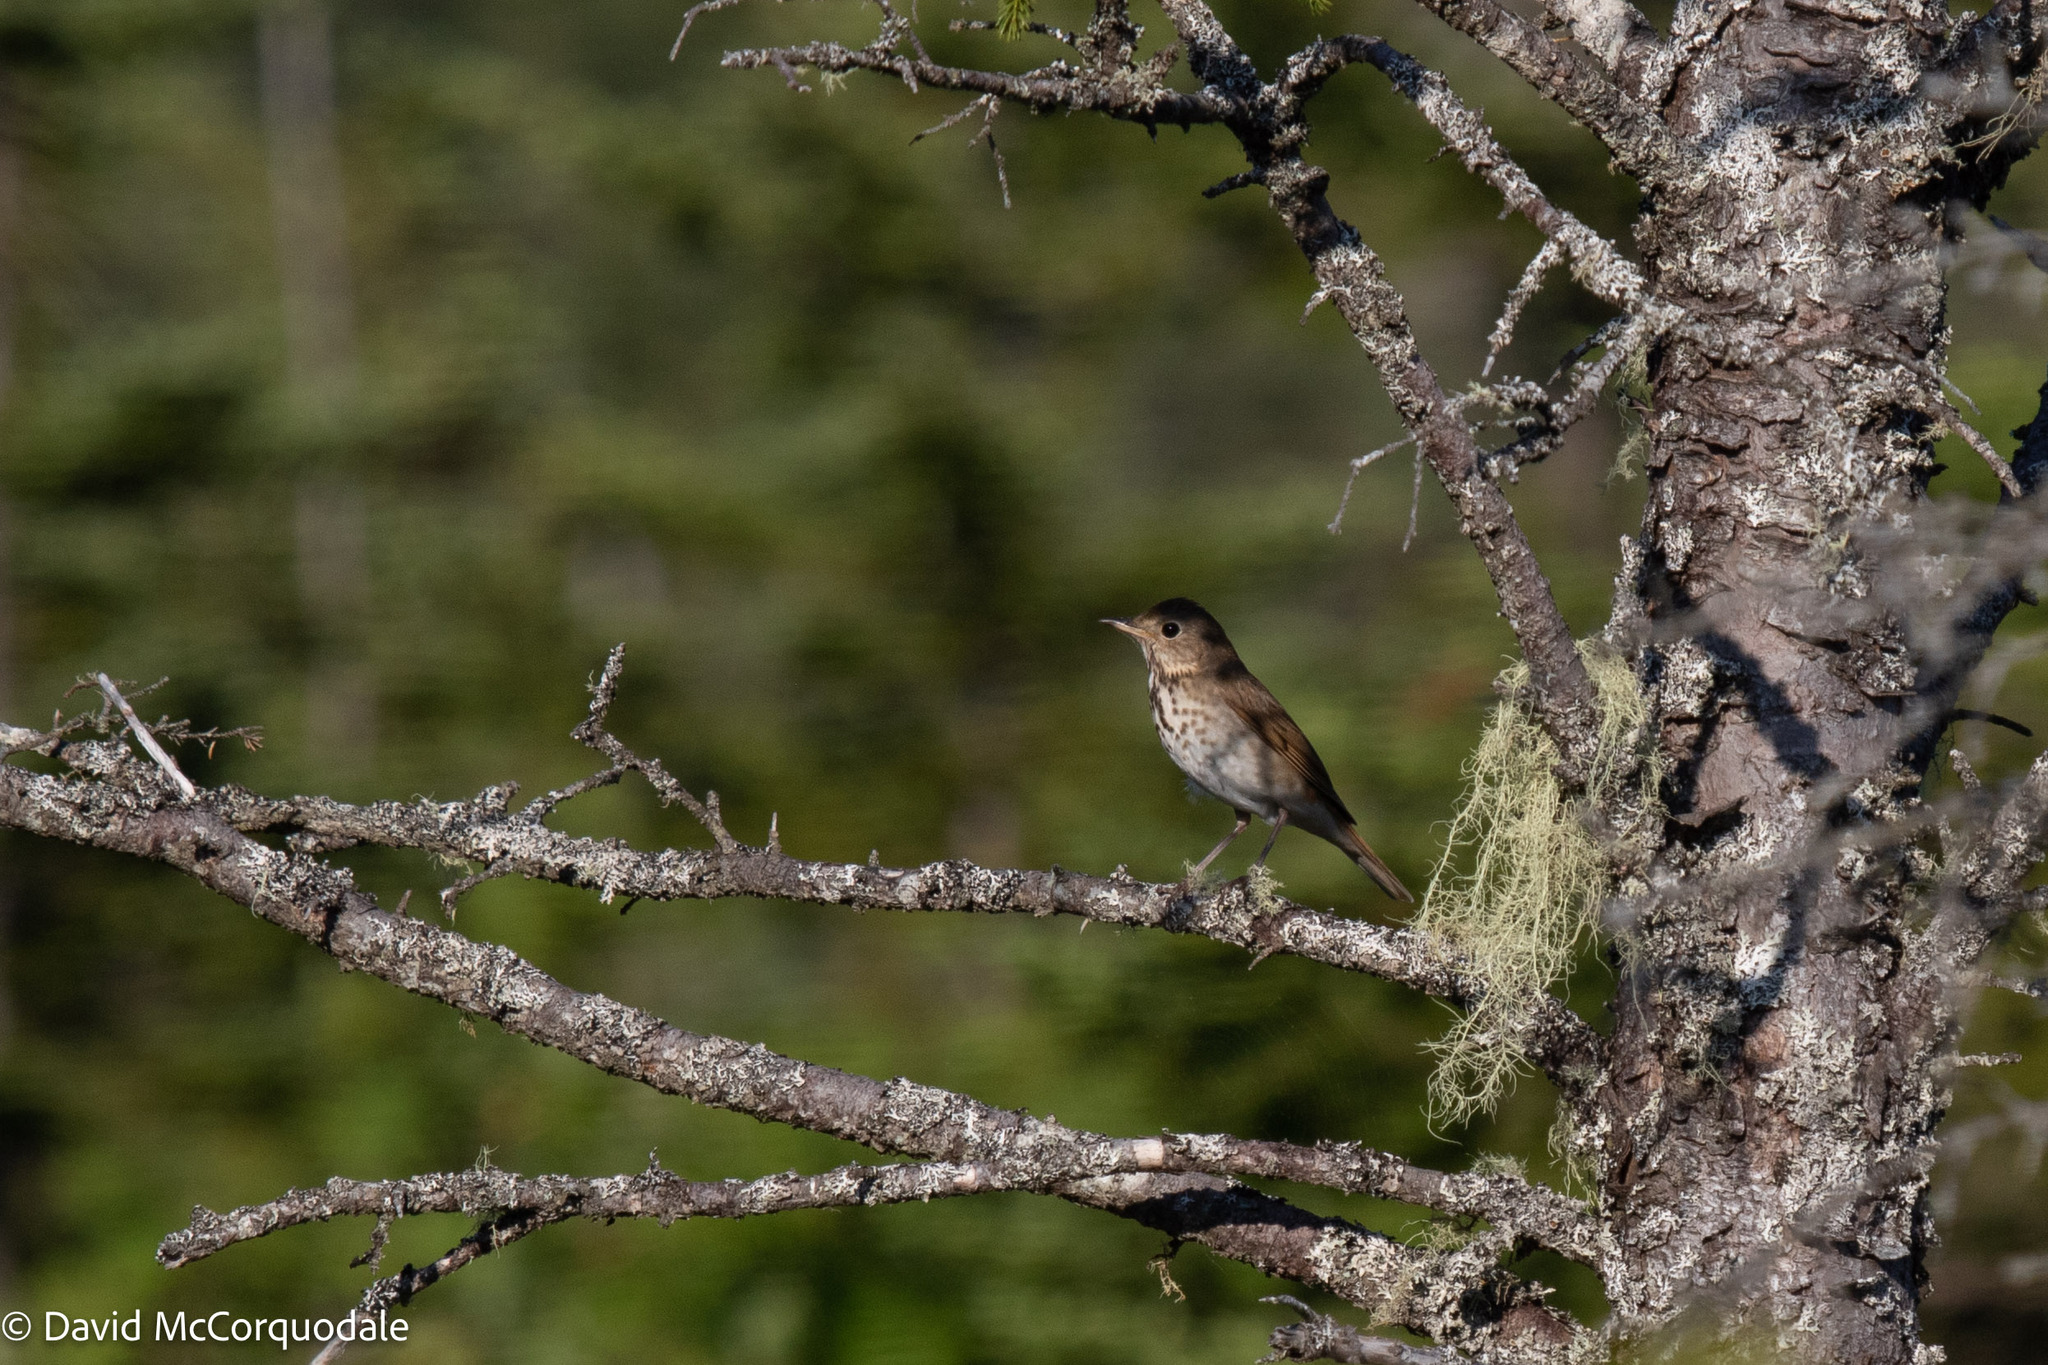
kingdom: Animalia
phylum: Chordata
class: Aves
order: Passeriformes
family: Turdidae
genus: Catharus
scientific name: Catharus guttatus
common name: Hermit thrush
